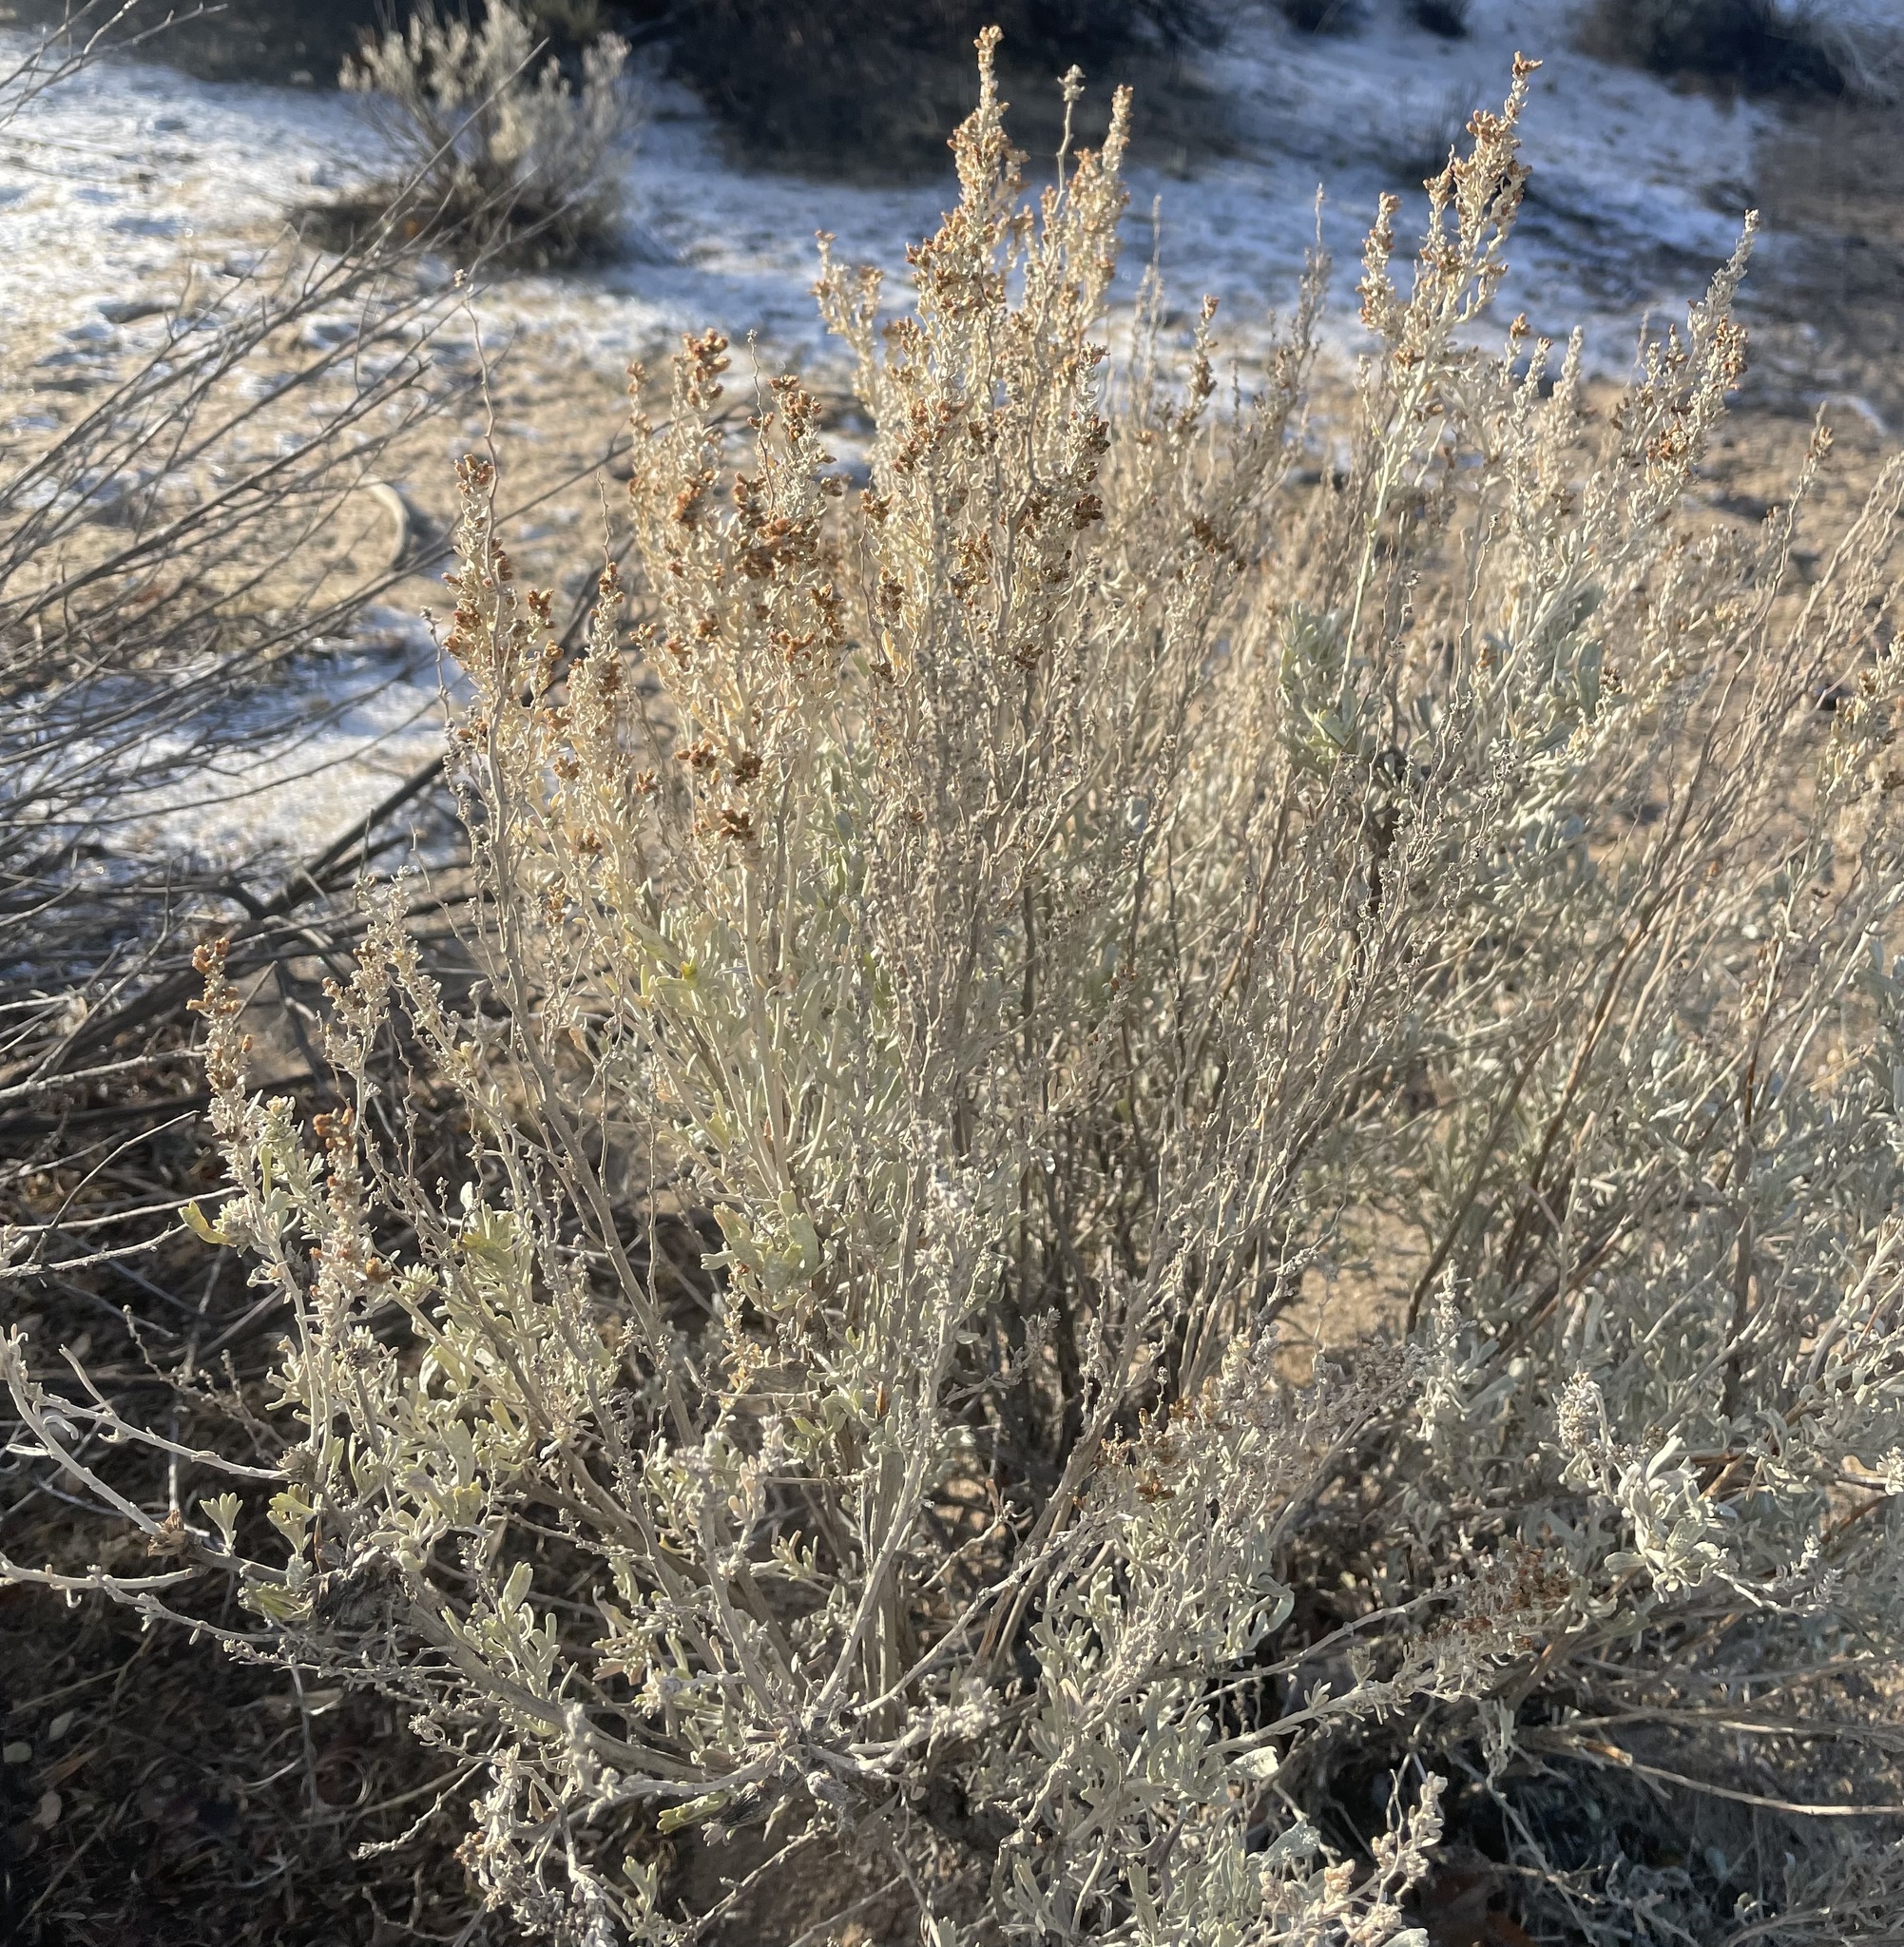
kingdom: Plantae
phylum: Tracheophyta
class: Magnoliopsida
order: Asterales
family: Asteraceae
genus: Artemisia
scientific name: Artemisia tridentata
